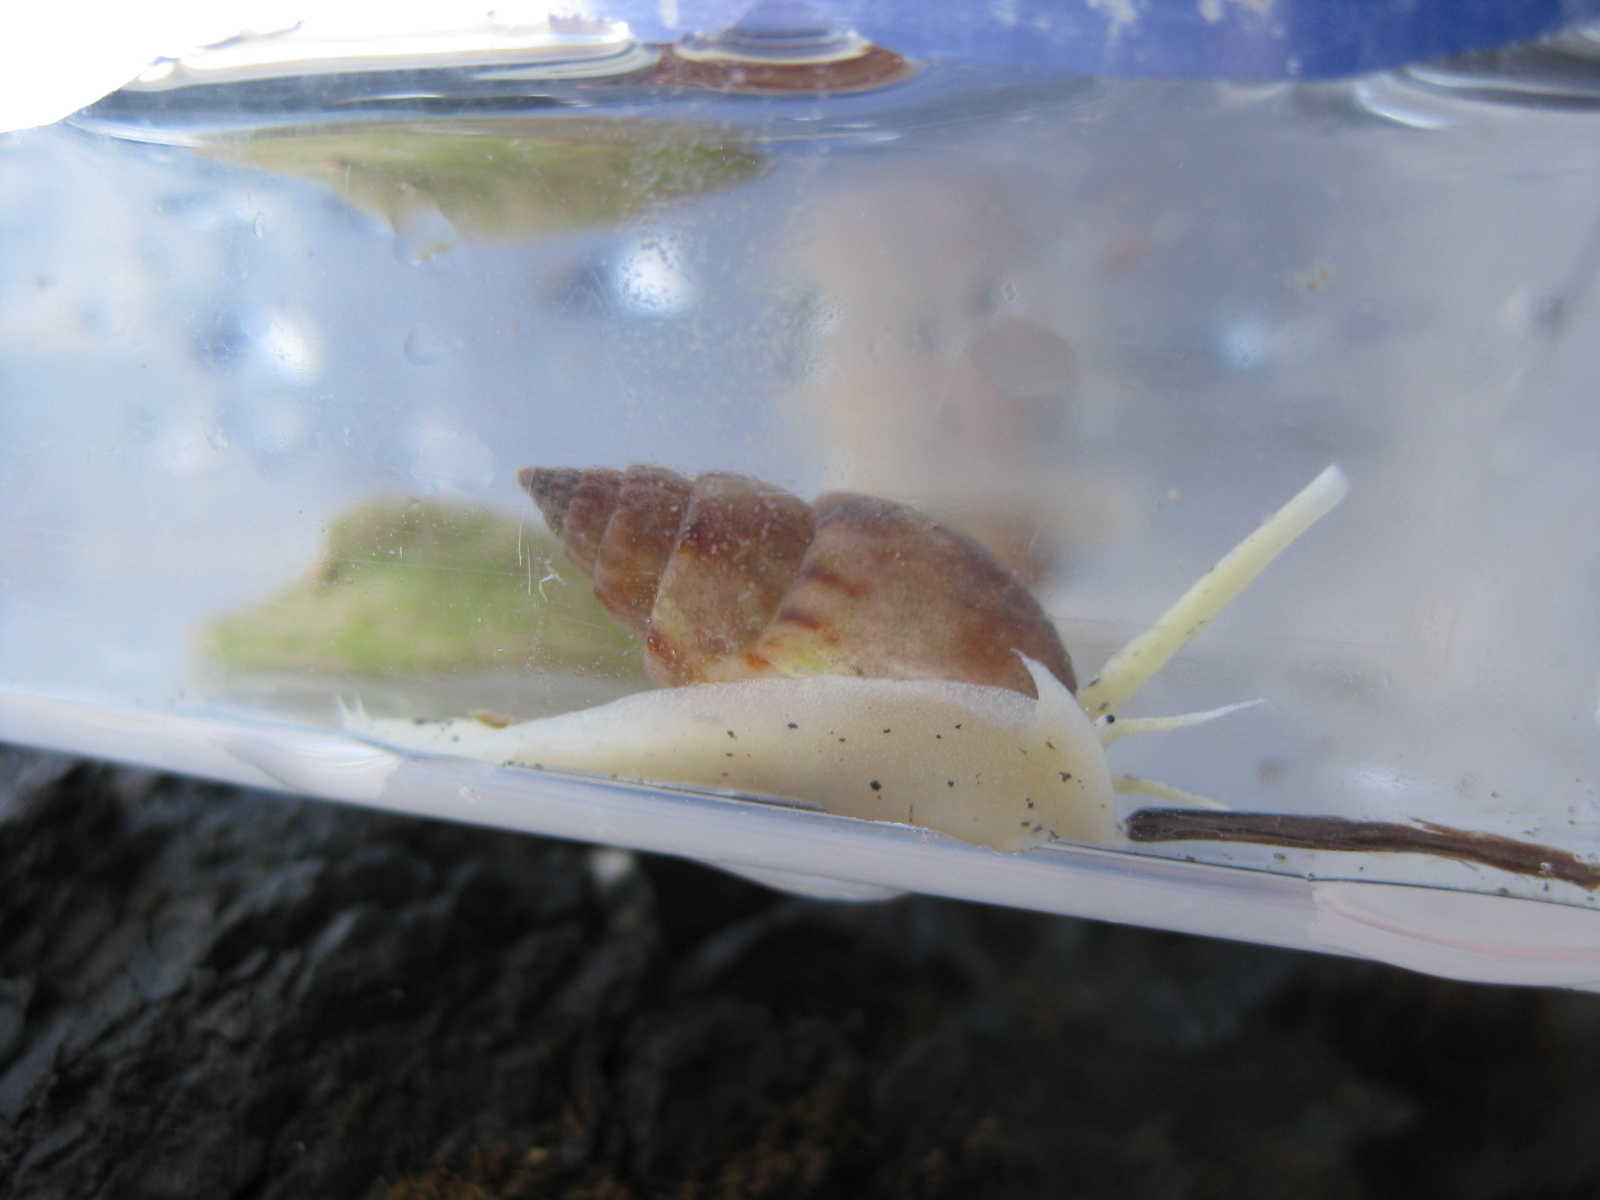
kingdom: Animalia
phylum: Mollusca
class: Gastropoda
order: Neogastropoda
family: Nassariidae
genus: Nassarius
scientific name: Nassarius spiratus
